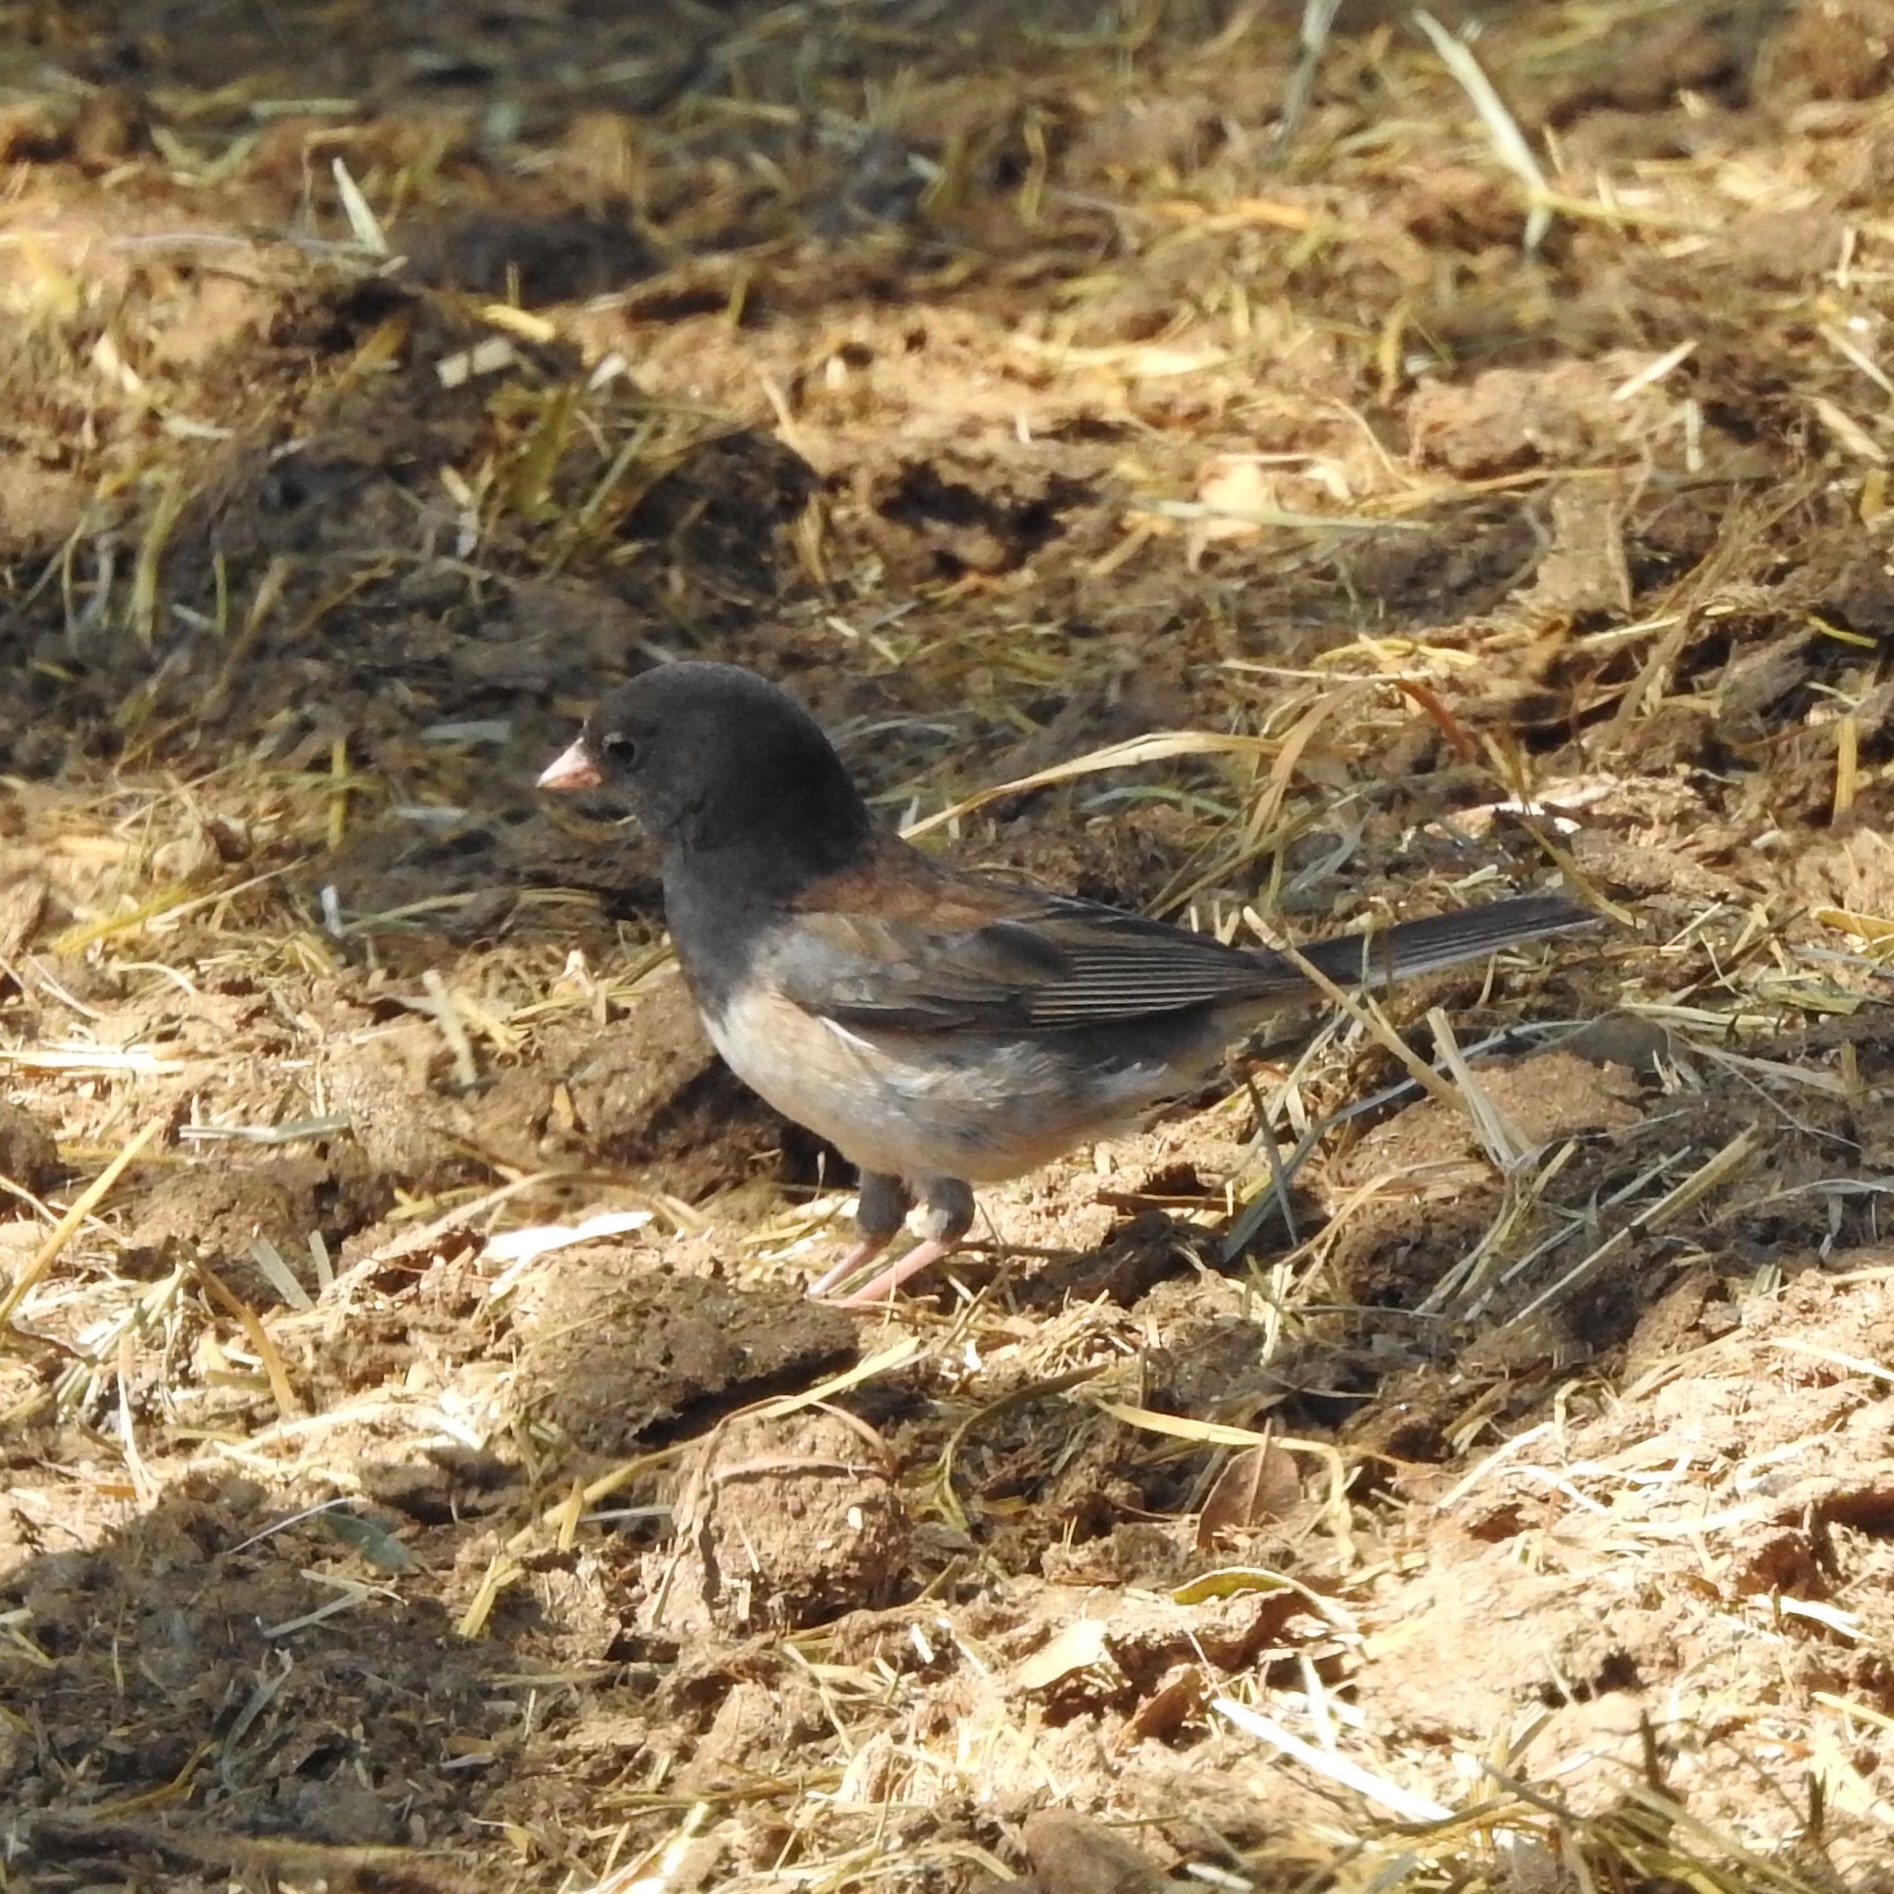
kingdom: Animalia
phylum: Chordata
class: Aves
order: Passeriformes
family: Passerellidae
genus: Junco
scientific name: Junco hyemalis
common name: Dark-eyed junco
